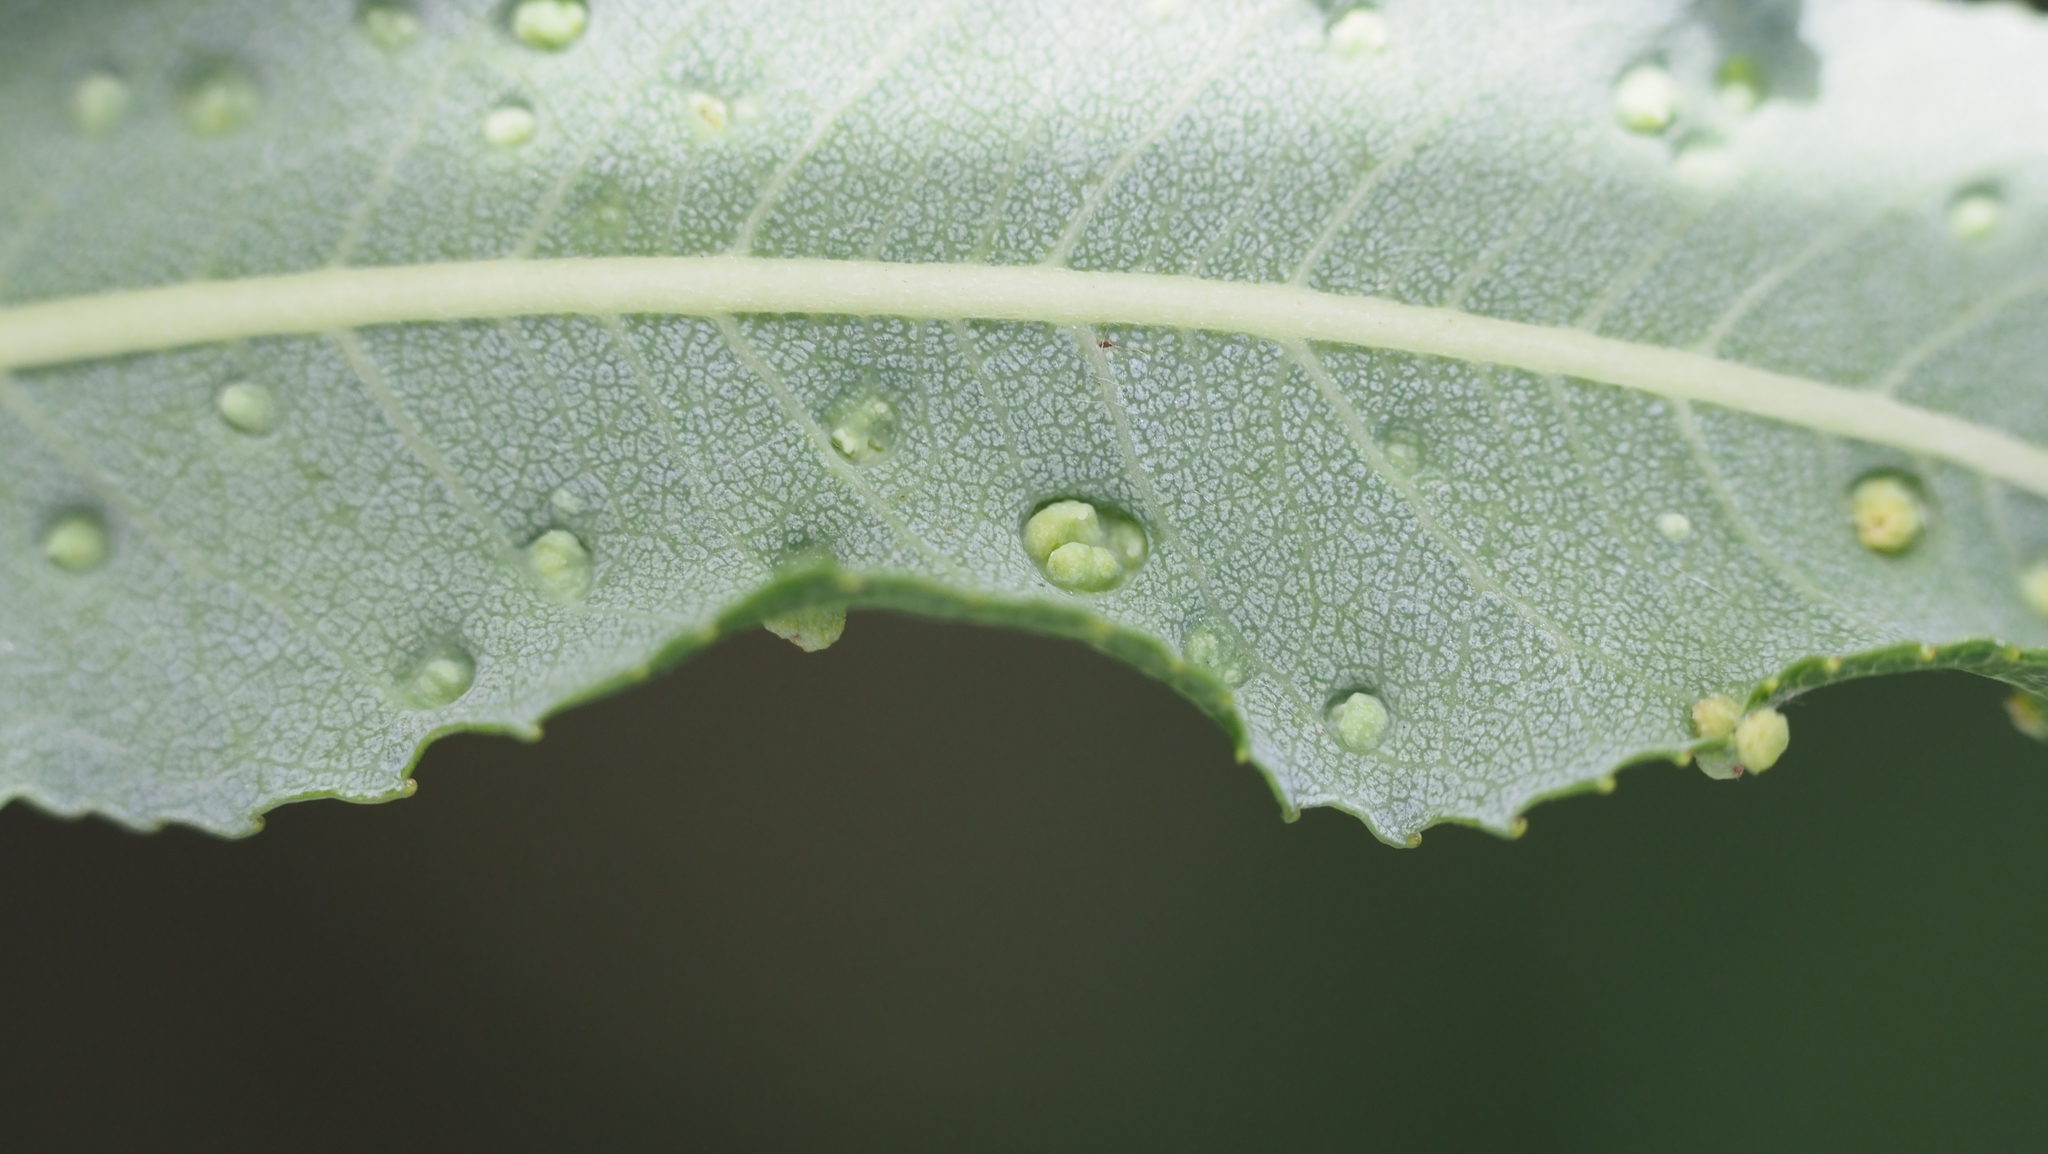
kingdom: Animalia
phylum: Arthropoda
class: Arachnida
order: Trombidiformes
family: Eriophyidae
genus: Aculus
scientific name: Aculus tetanothrix
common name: Willow bead gall mite
